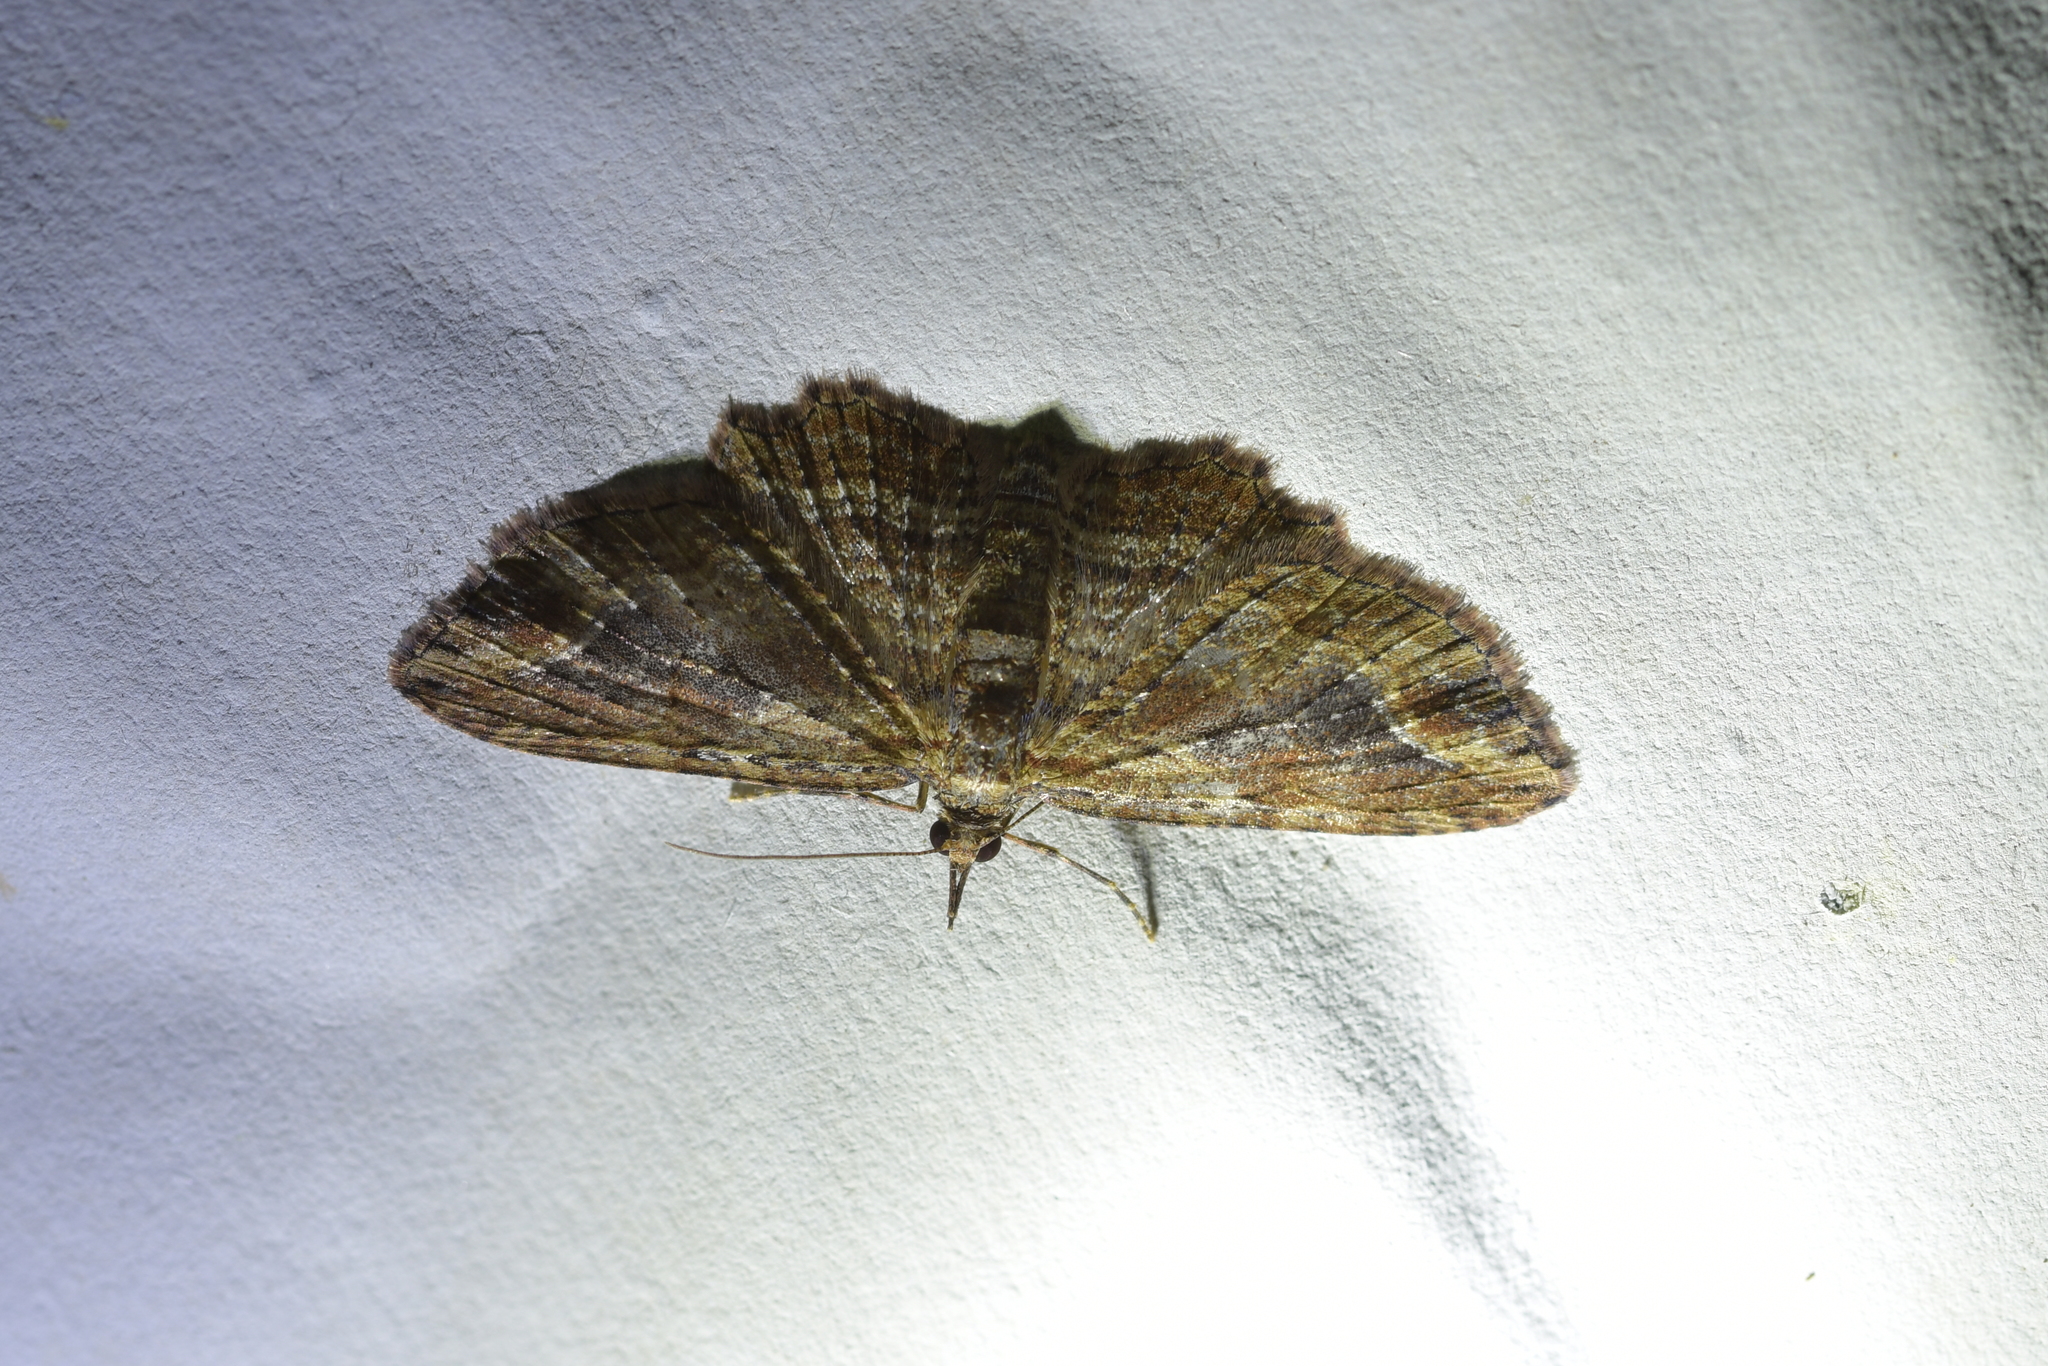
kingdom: Animalia
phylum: Arthropoda
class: Insecta
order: Lepidoptera
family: Geometridae
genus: Chloroclystis
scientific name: Chloroclystis filata
